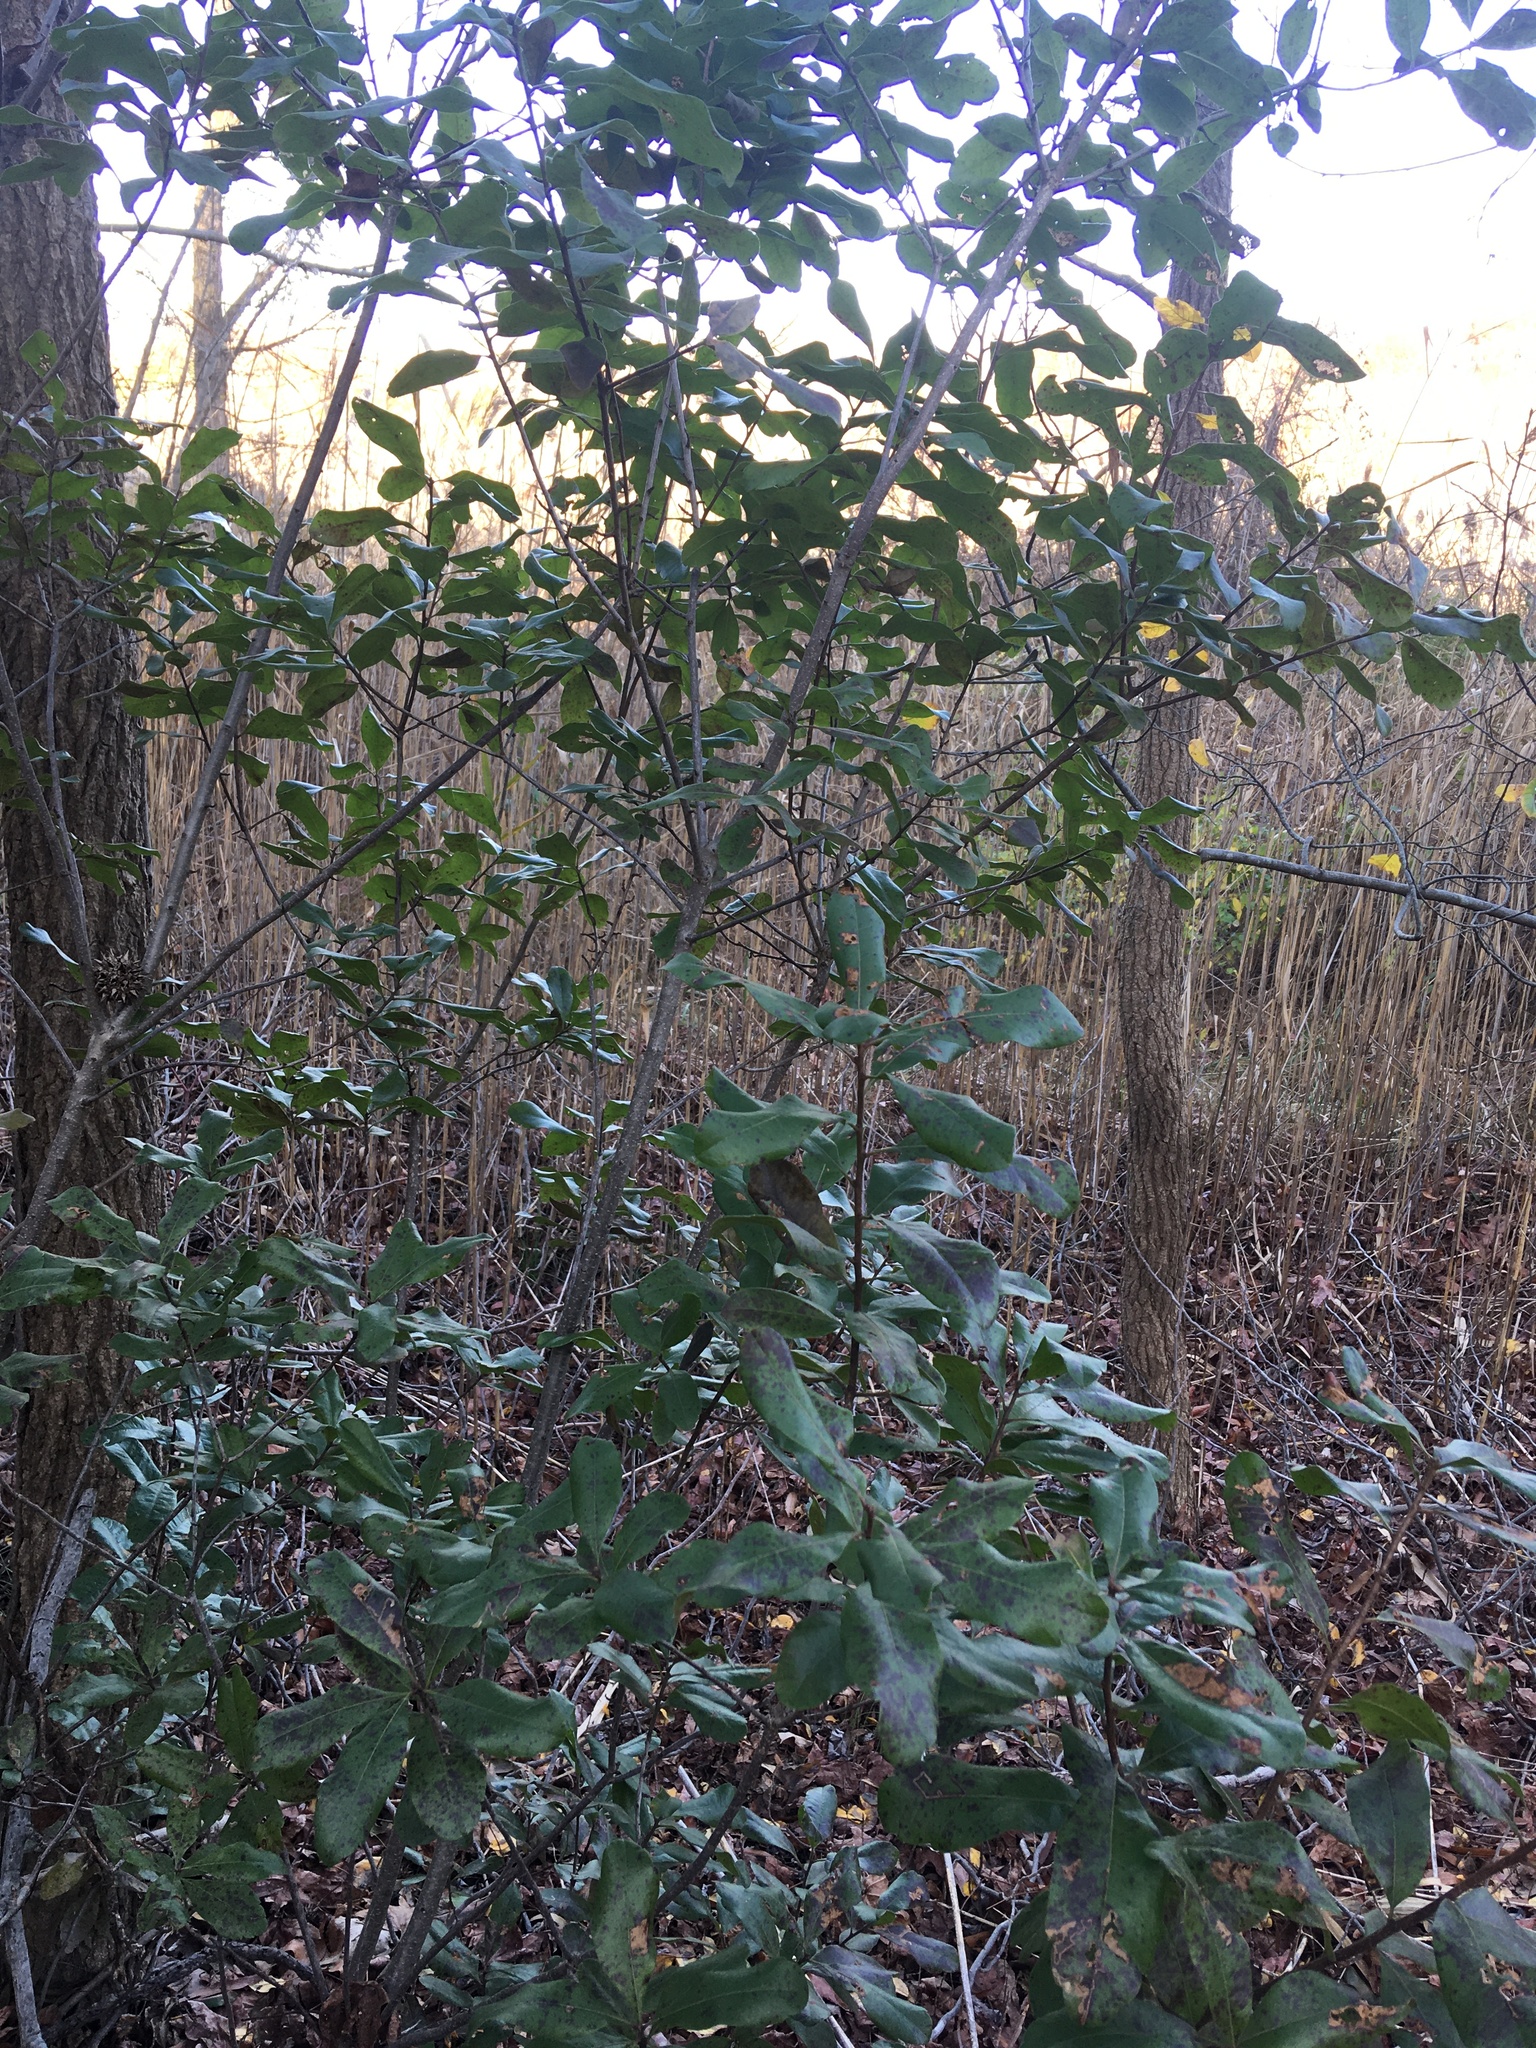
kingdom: Plantae
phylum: Tracheophyta
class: Magnoliopsida
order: Fagales
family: Myricaceae
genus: Morella
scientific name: Morella pensylvanica
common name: Northern bayberry
